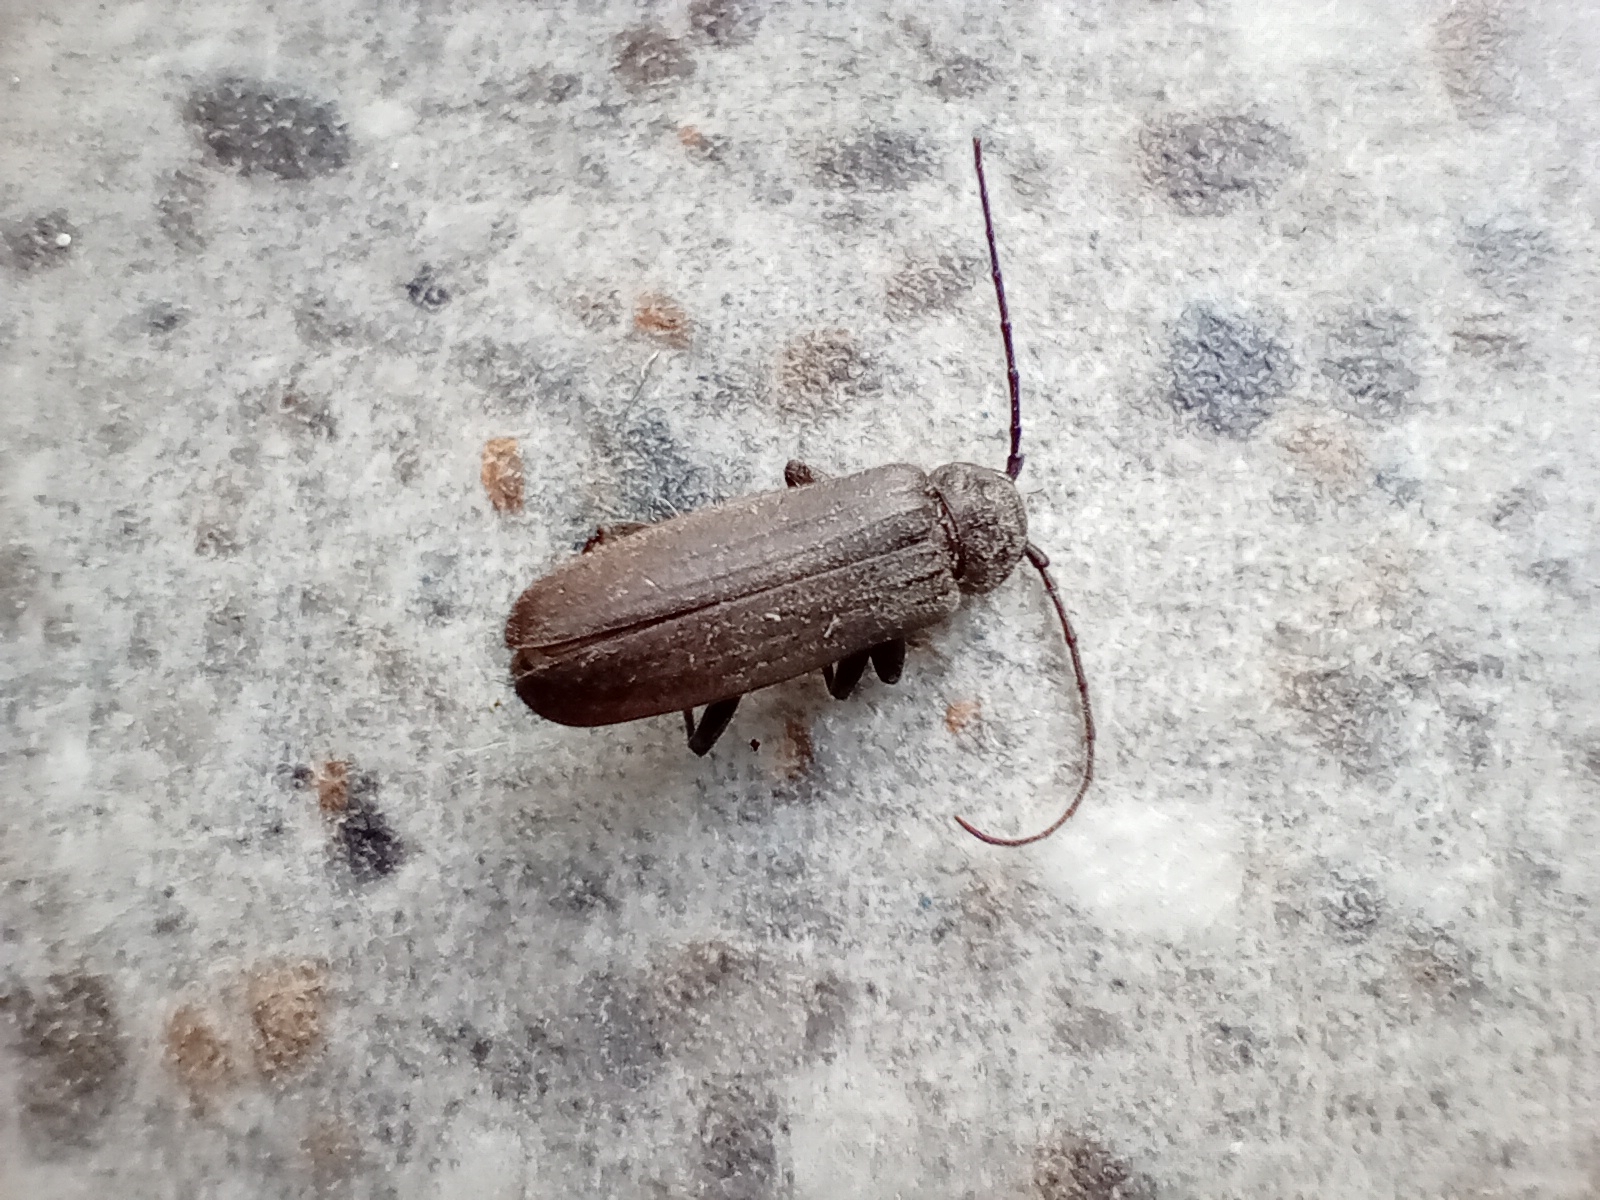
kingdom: Animalia
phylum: Arthropoda
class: Insecta
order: Coleoptera
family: Cerambycidae
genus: Arhopalus
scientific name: Arhopalus ferus
